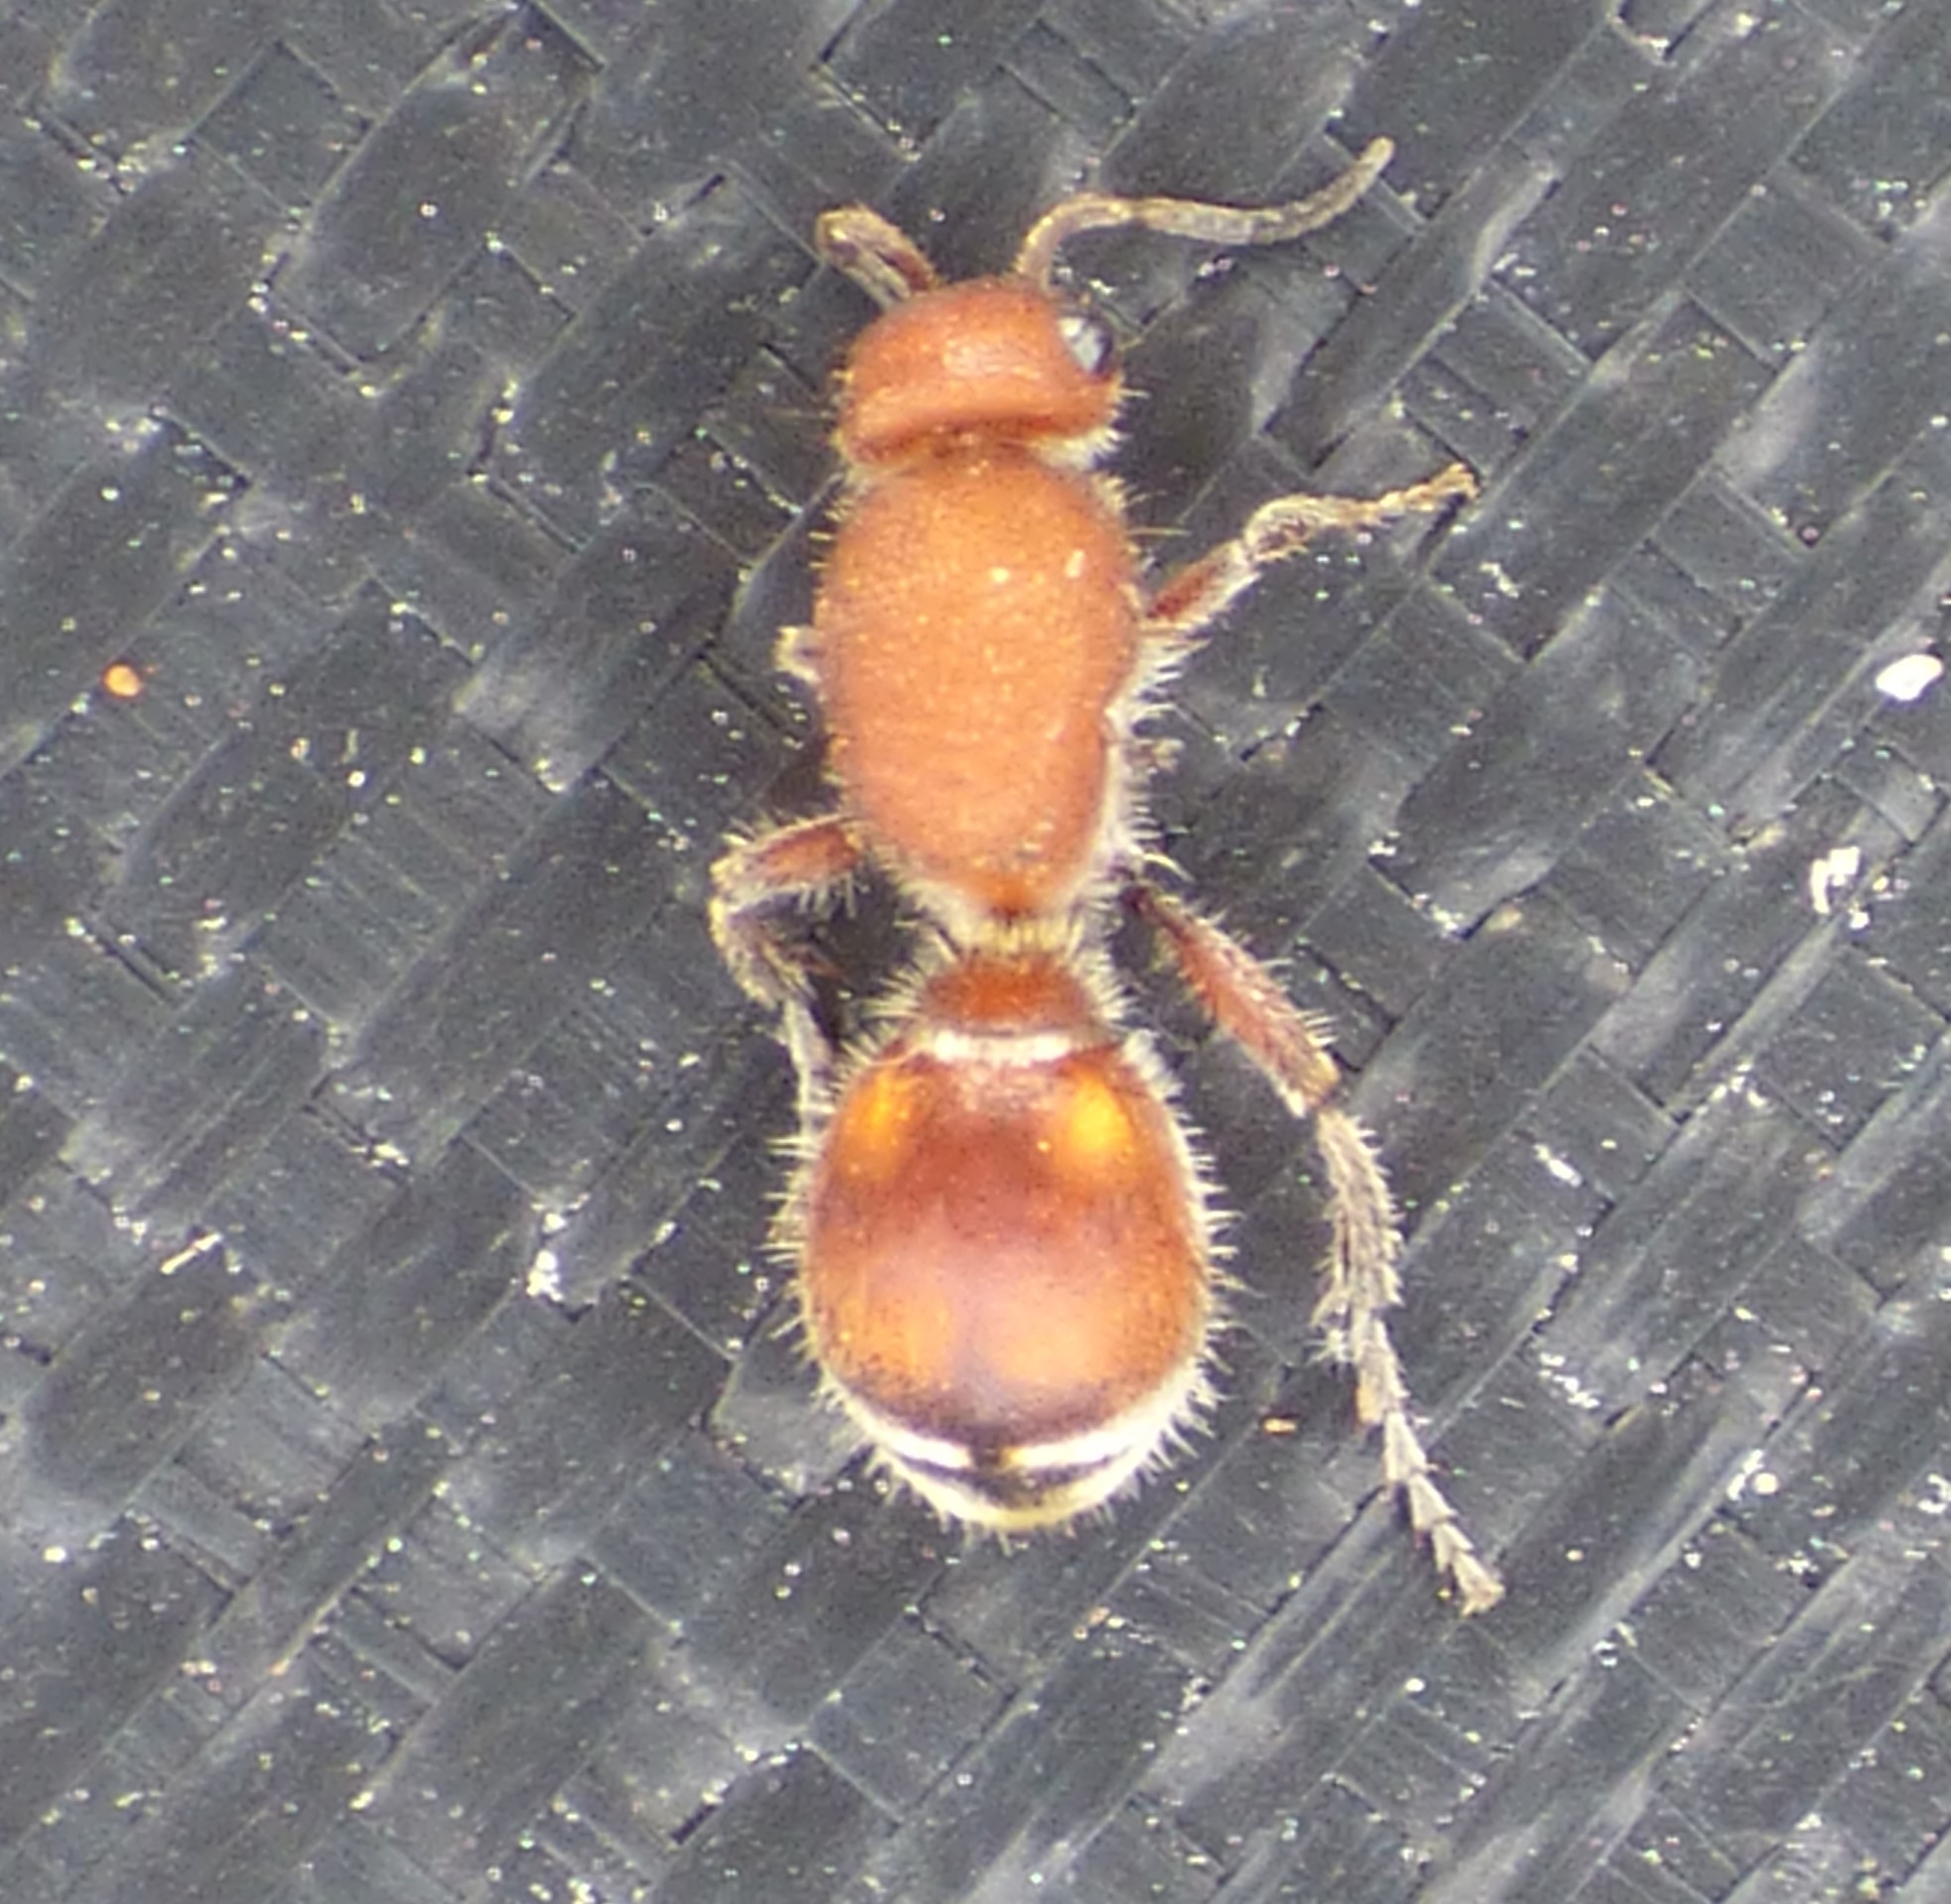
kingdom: Animalia
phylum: Arthropoda
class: Insecta
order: Hymenoptera
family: Mutillidae
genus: Dasymutilla
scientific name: Dasymutilla
